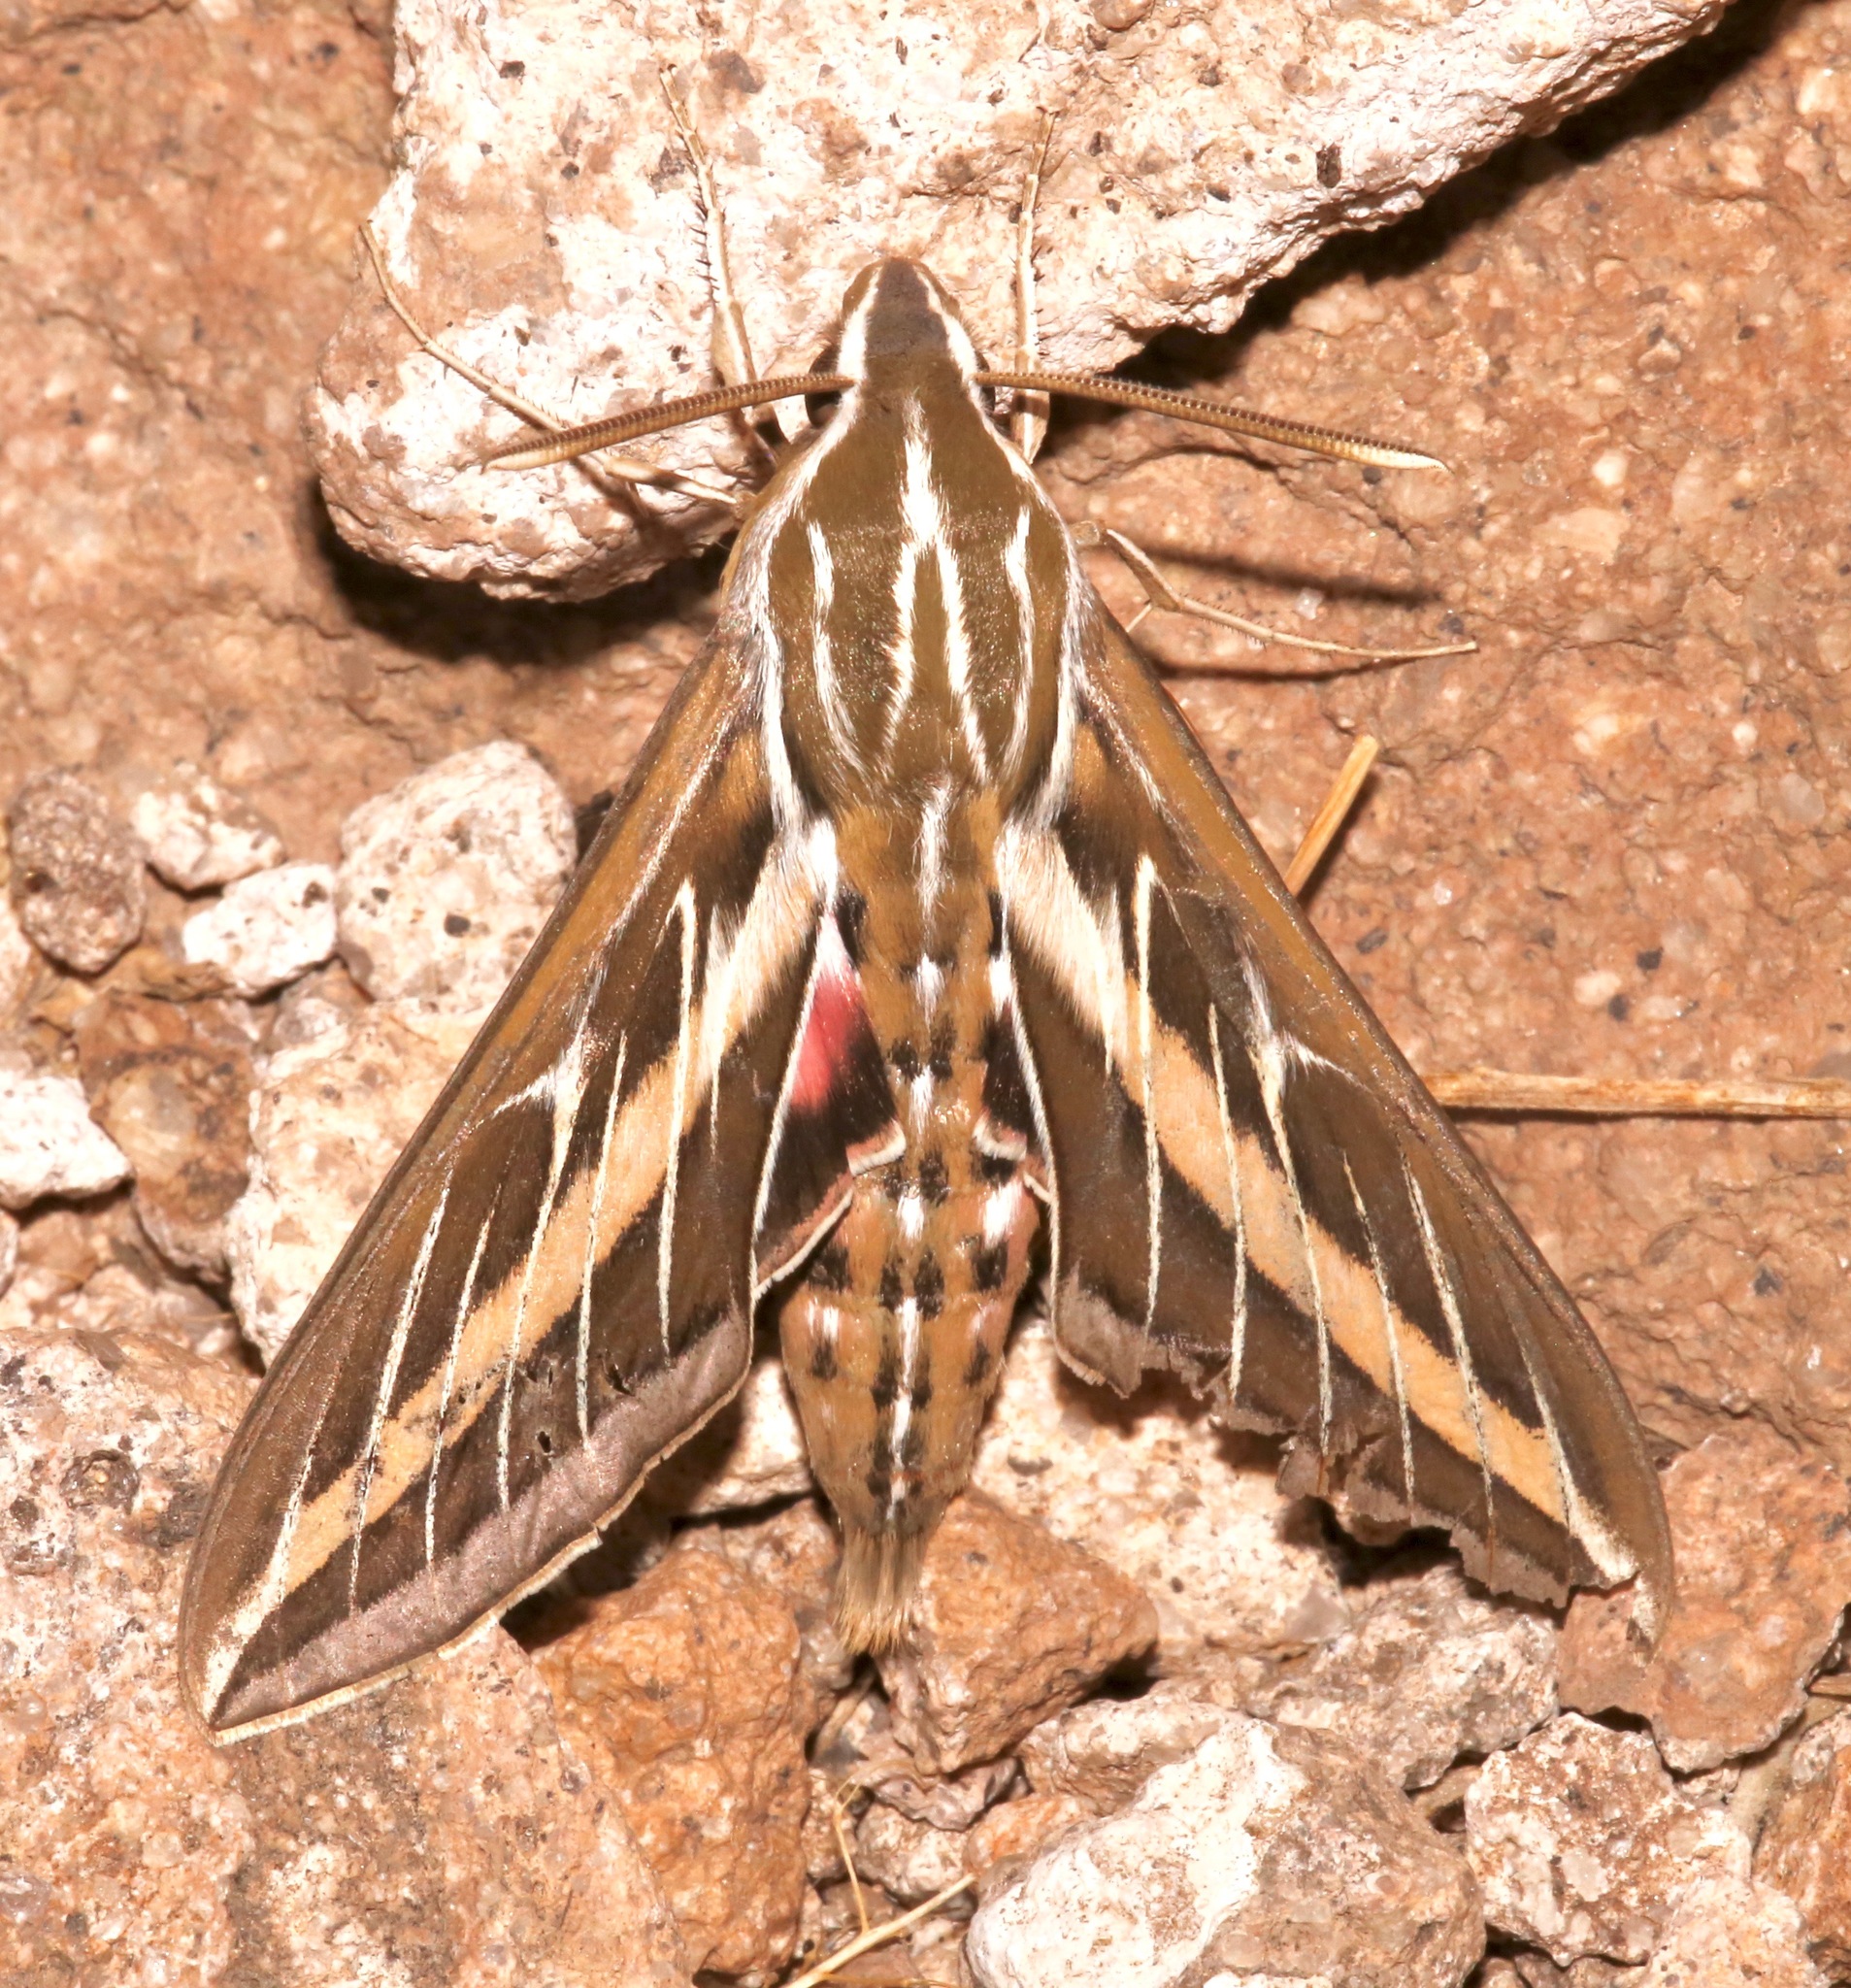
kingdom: Animalia
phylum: Arthropoda
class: Insecta
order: Lepidoptera
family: Sphingidae
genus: Hyles
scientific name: Hyles lineata
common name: White-lined sphinx
